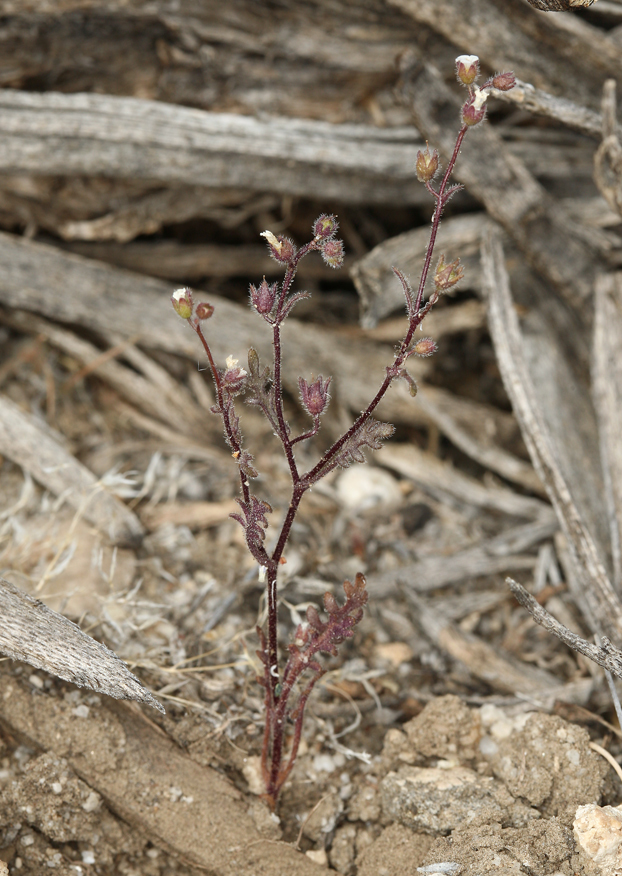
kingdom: Plantae
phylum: Tracheophyta
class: Magnoliopsida
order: Boraginales
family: Hydrophyllaceae
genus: Eucrypta
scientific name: Eucrypta micrantha
